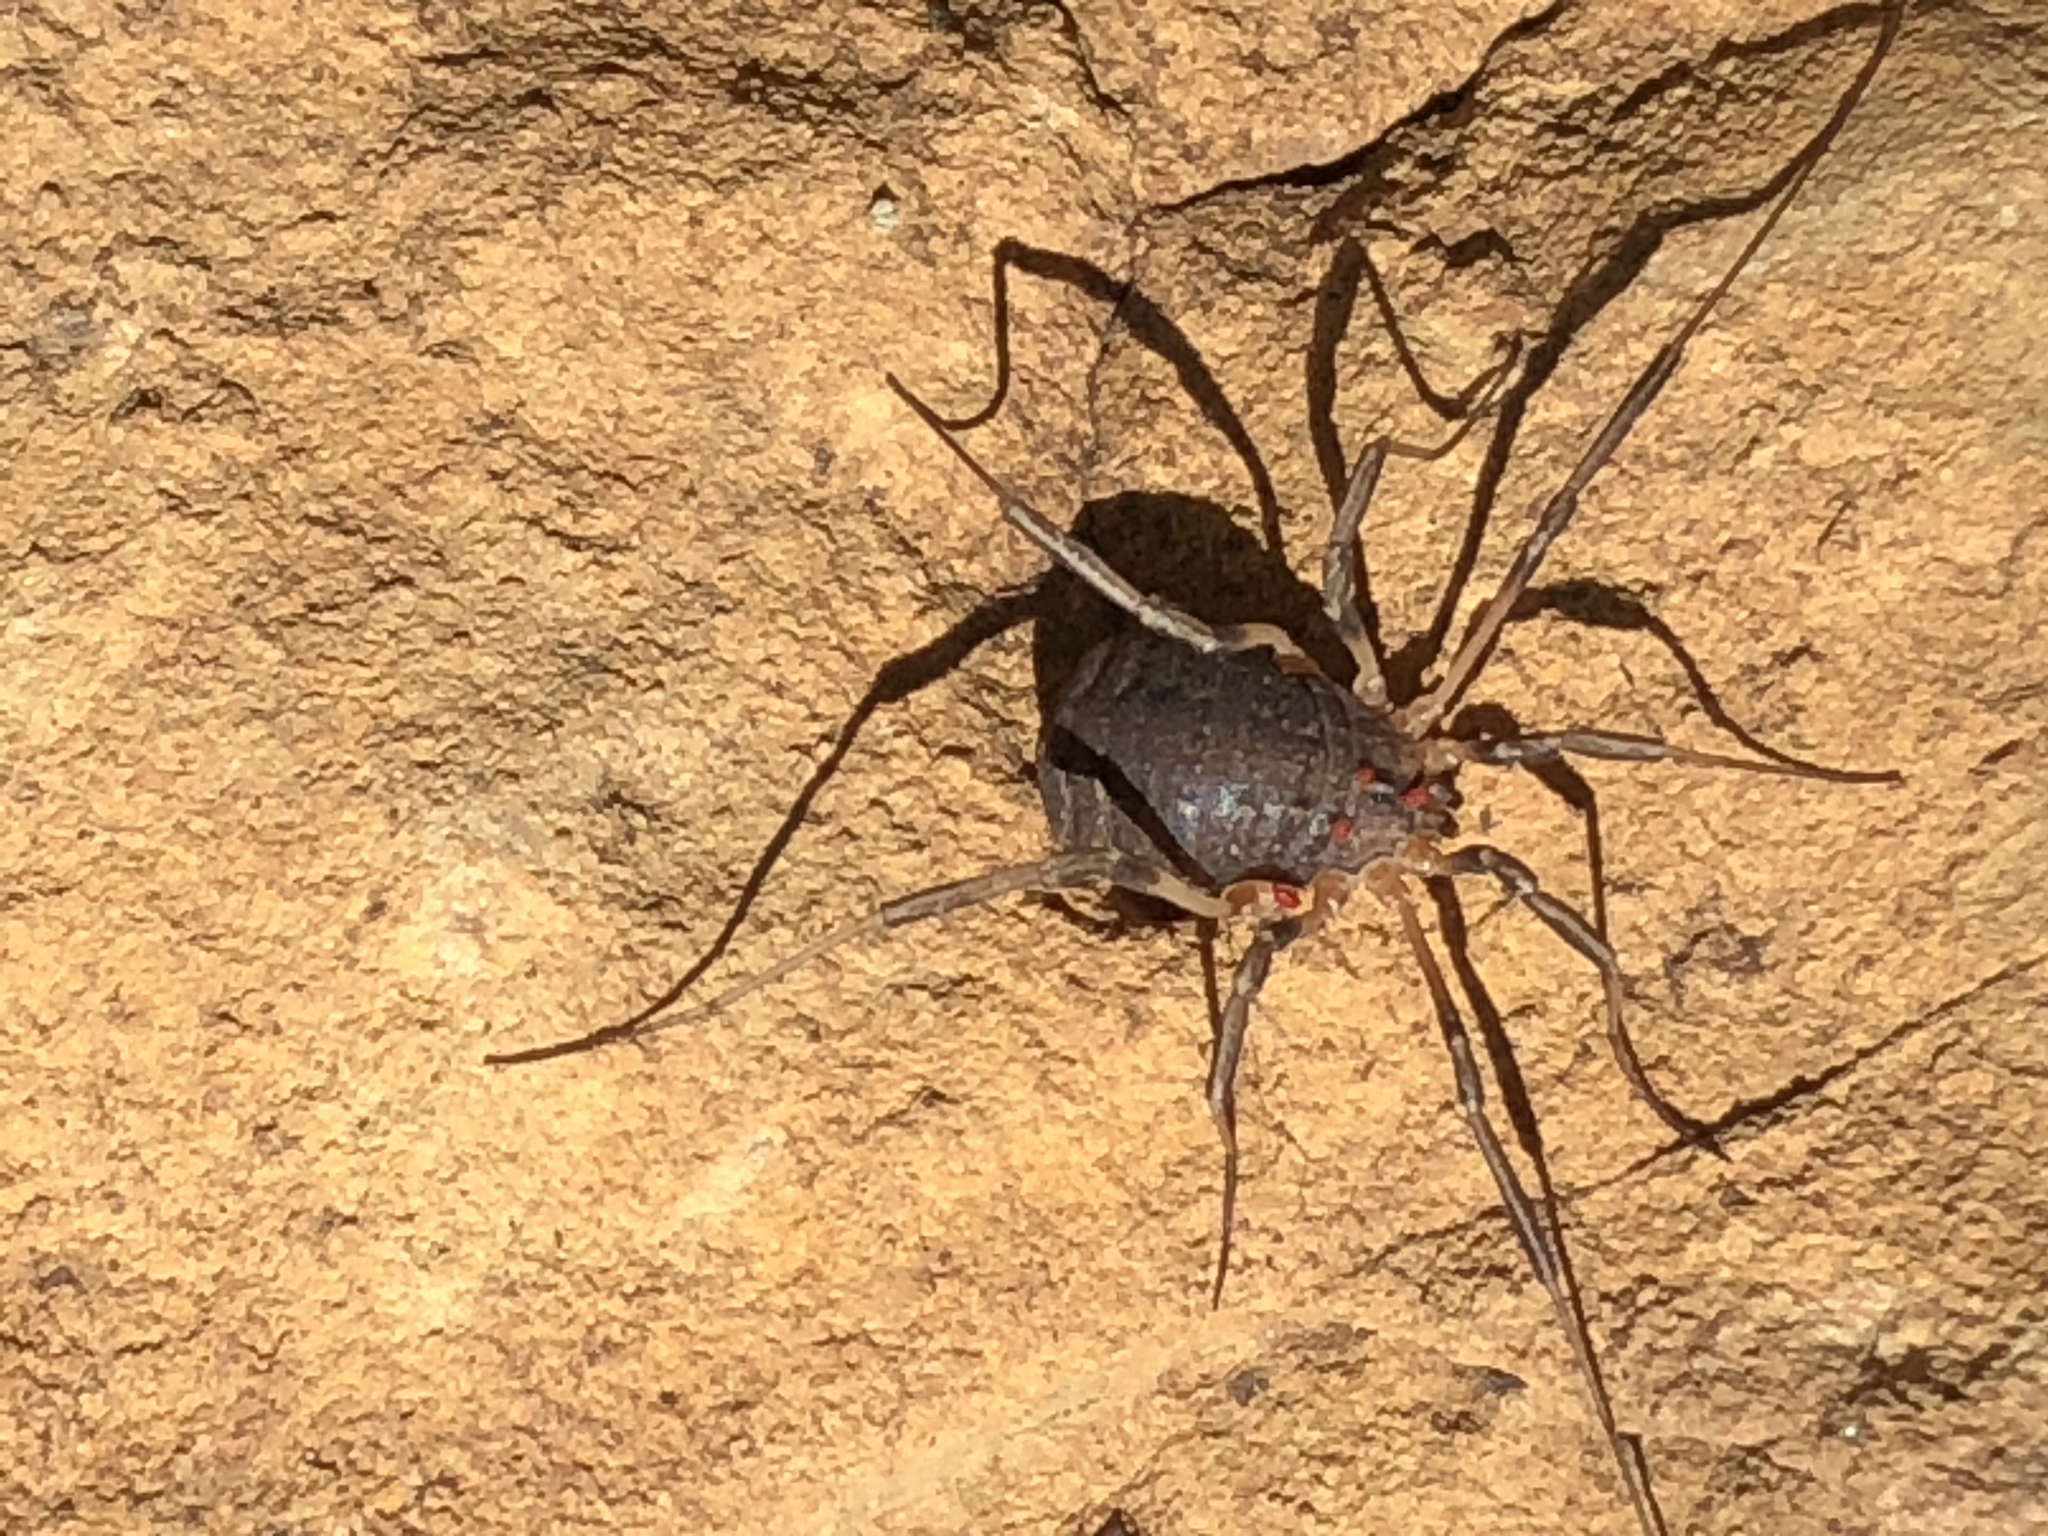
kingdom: Animalia
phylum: Arthropoda
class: Arachnida
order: Opiliones
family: Sclerosomatidae
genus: Eumesosoma
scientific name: Eumesosoma roeweri
